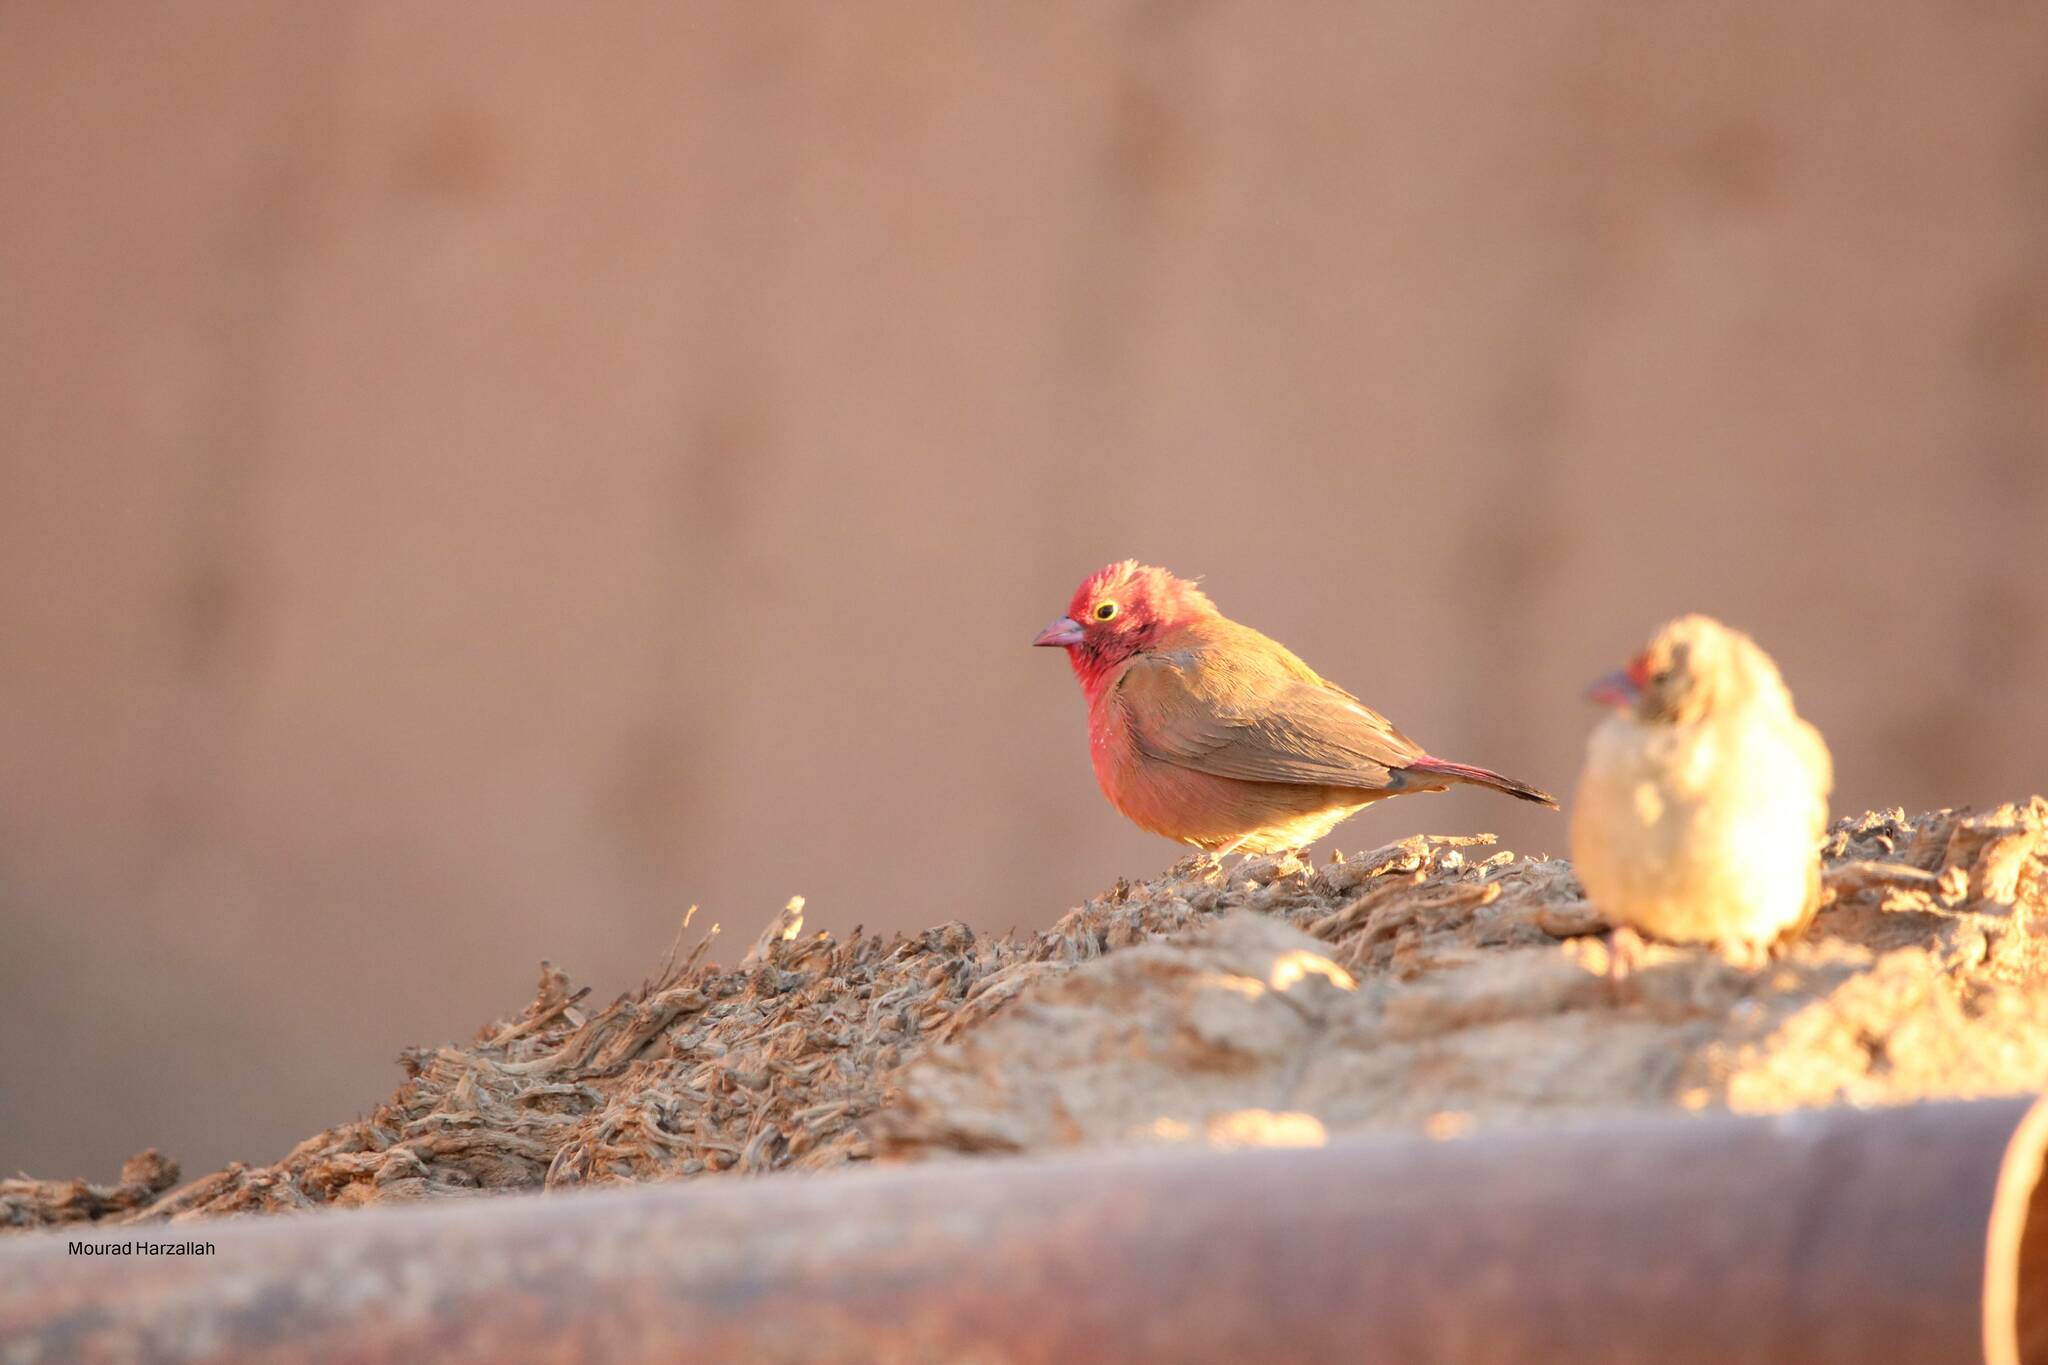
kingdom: Animalia
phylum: Chordata
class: Aves
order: Passeriformes
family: Estrildidae
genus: Lagonosticta
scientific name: Lagonosticta senegala
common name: Red-billed firefinch
